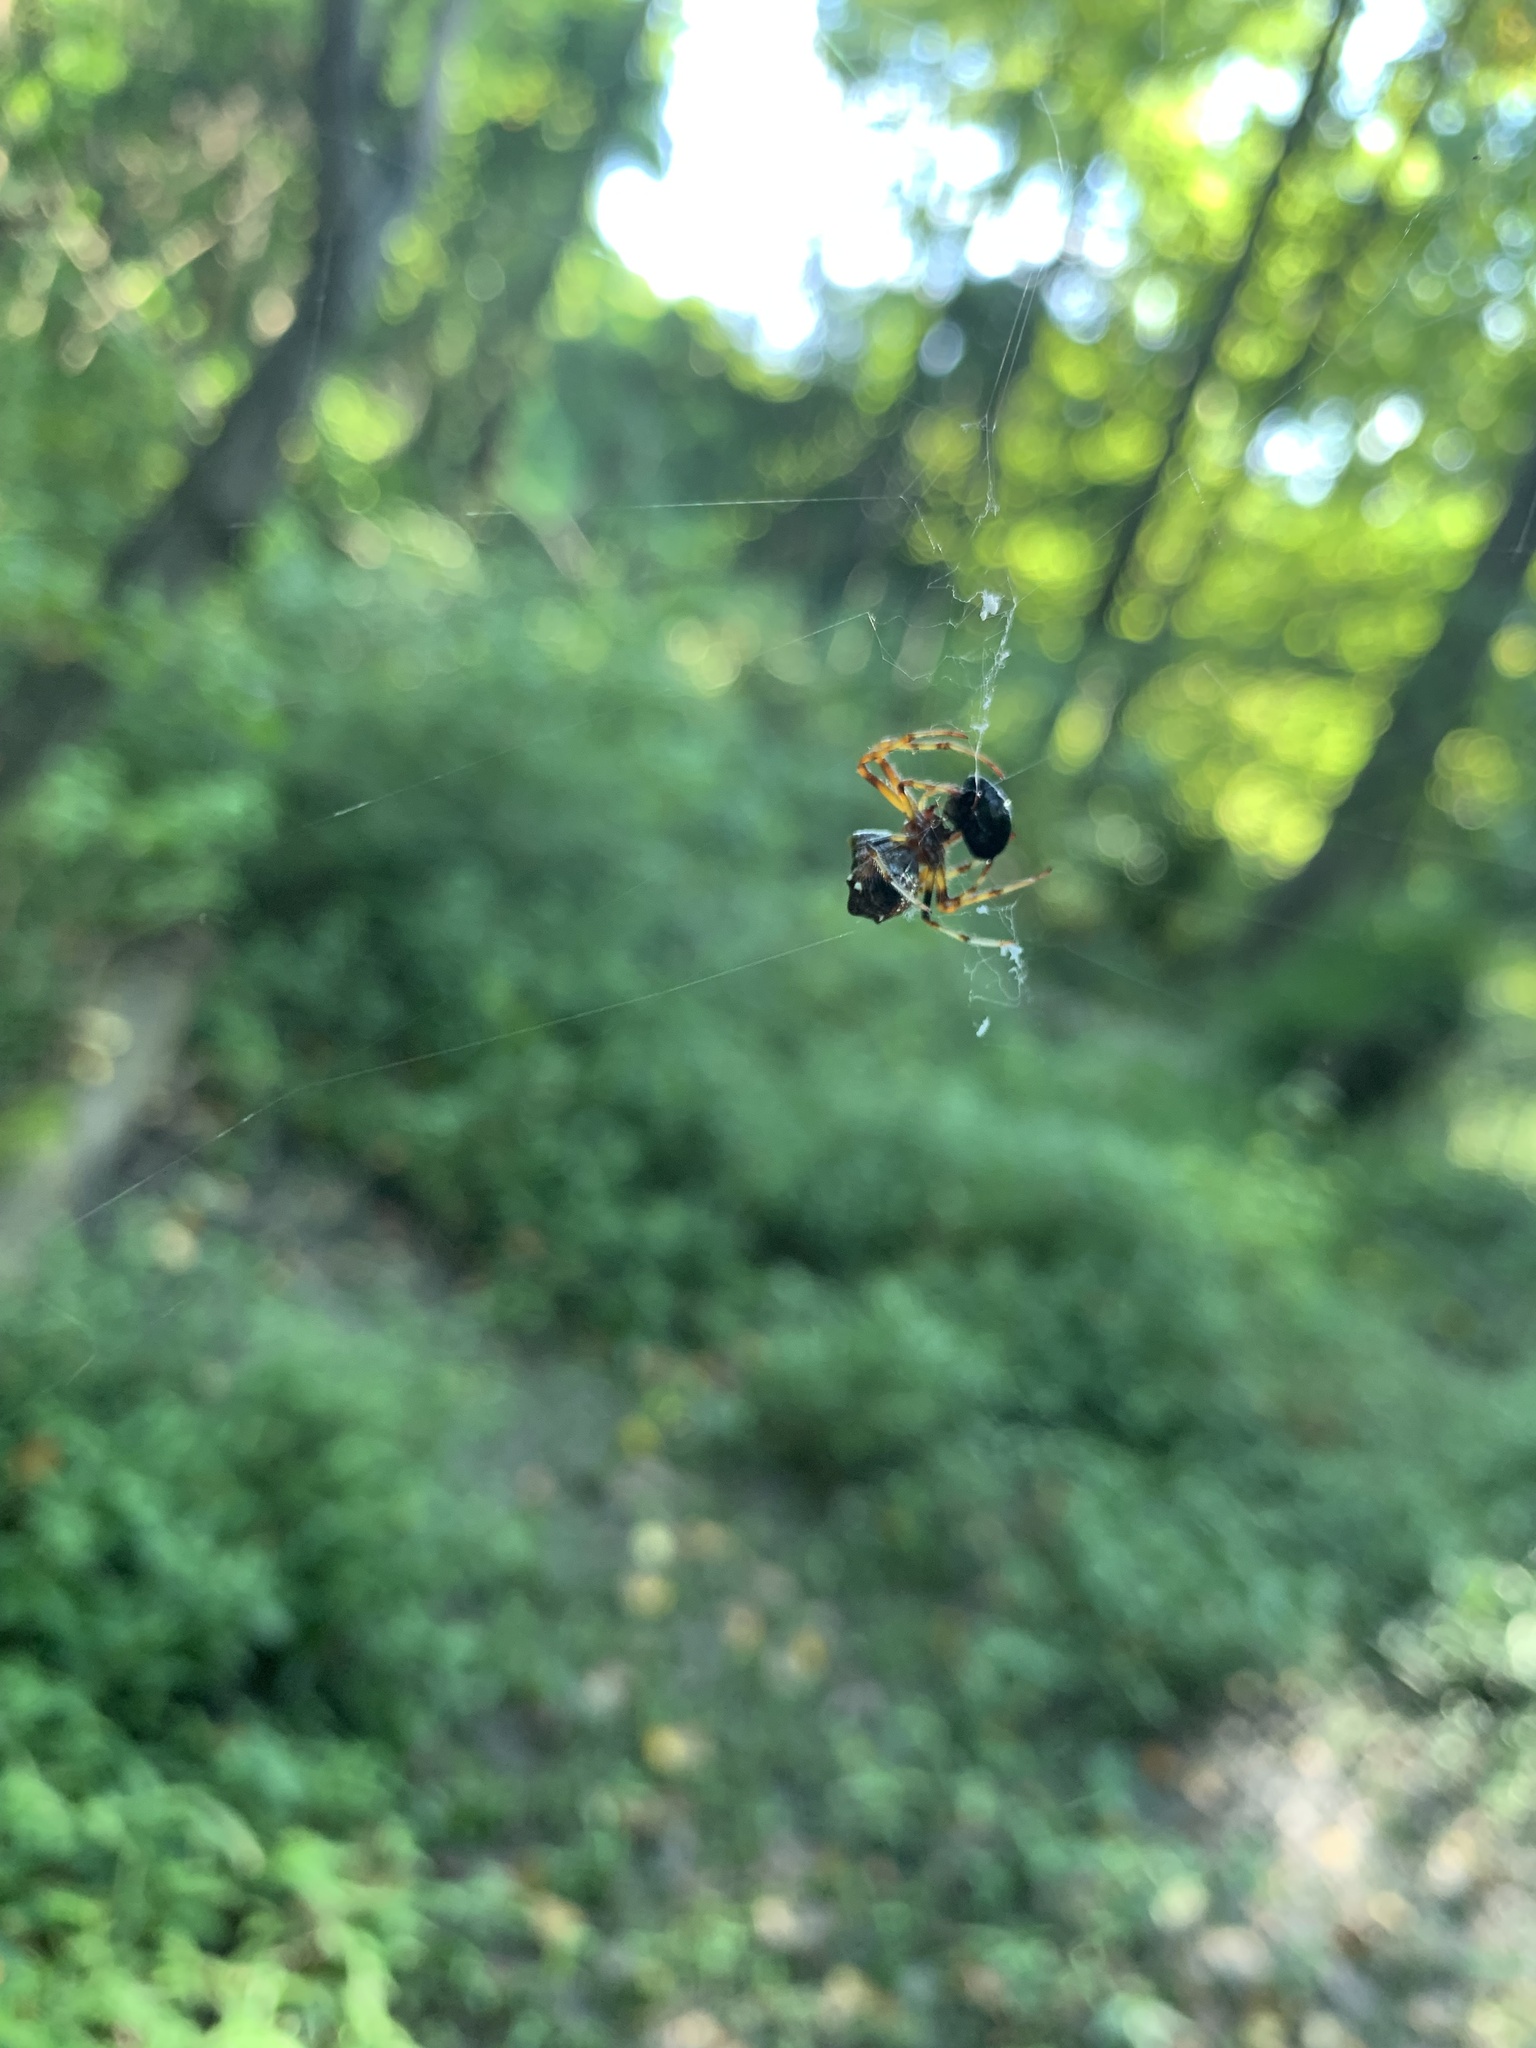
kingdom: Animalia
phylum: Arthropoda
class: Arachnida
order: Araneae
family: Araneidae
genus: Verrucosa
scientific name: Verrucosa arenata
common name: Orb weavers
